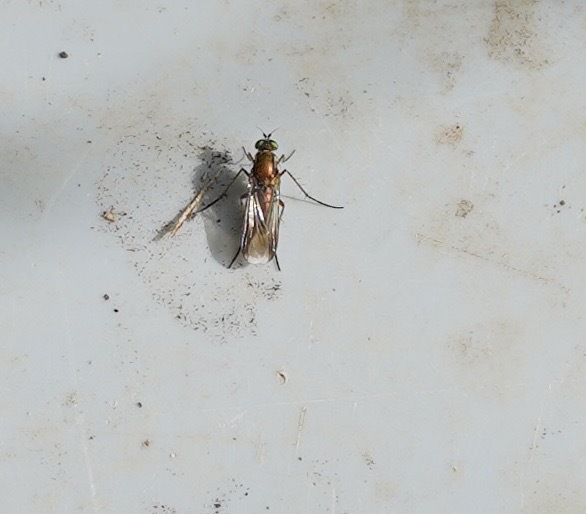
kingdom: Animalia
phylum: Arthropoda
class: Insecta
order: Diptera
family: Dolichopodidae
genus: Poecilobothrus
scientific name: Poecilobothrus nobilitatus
